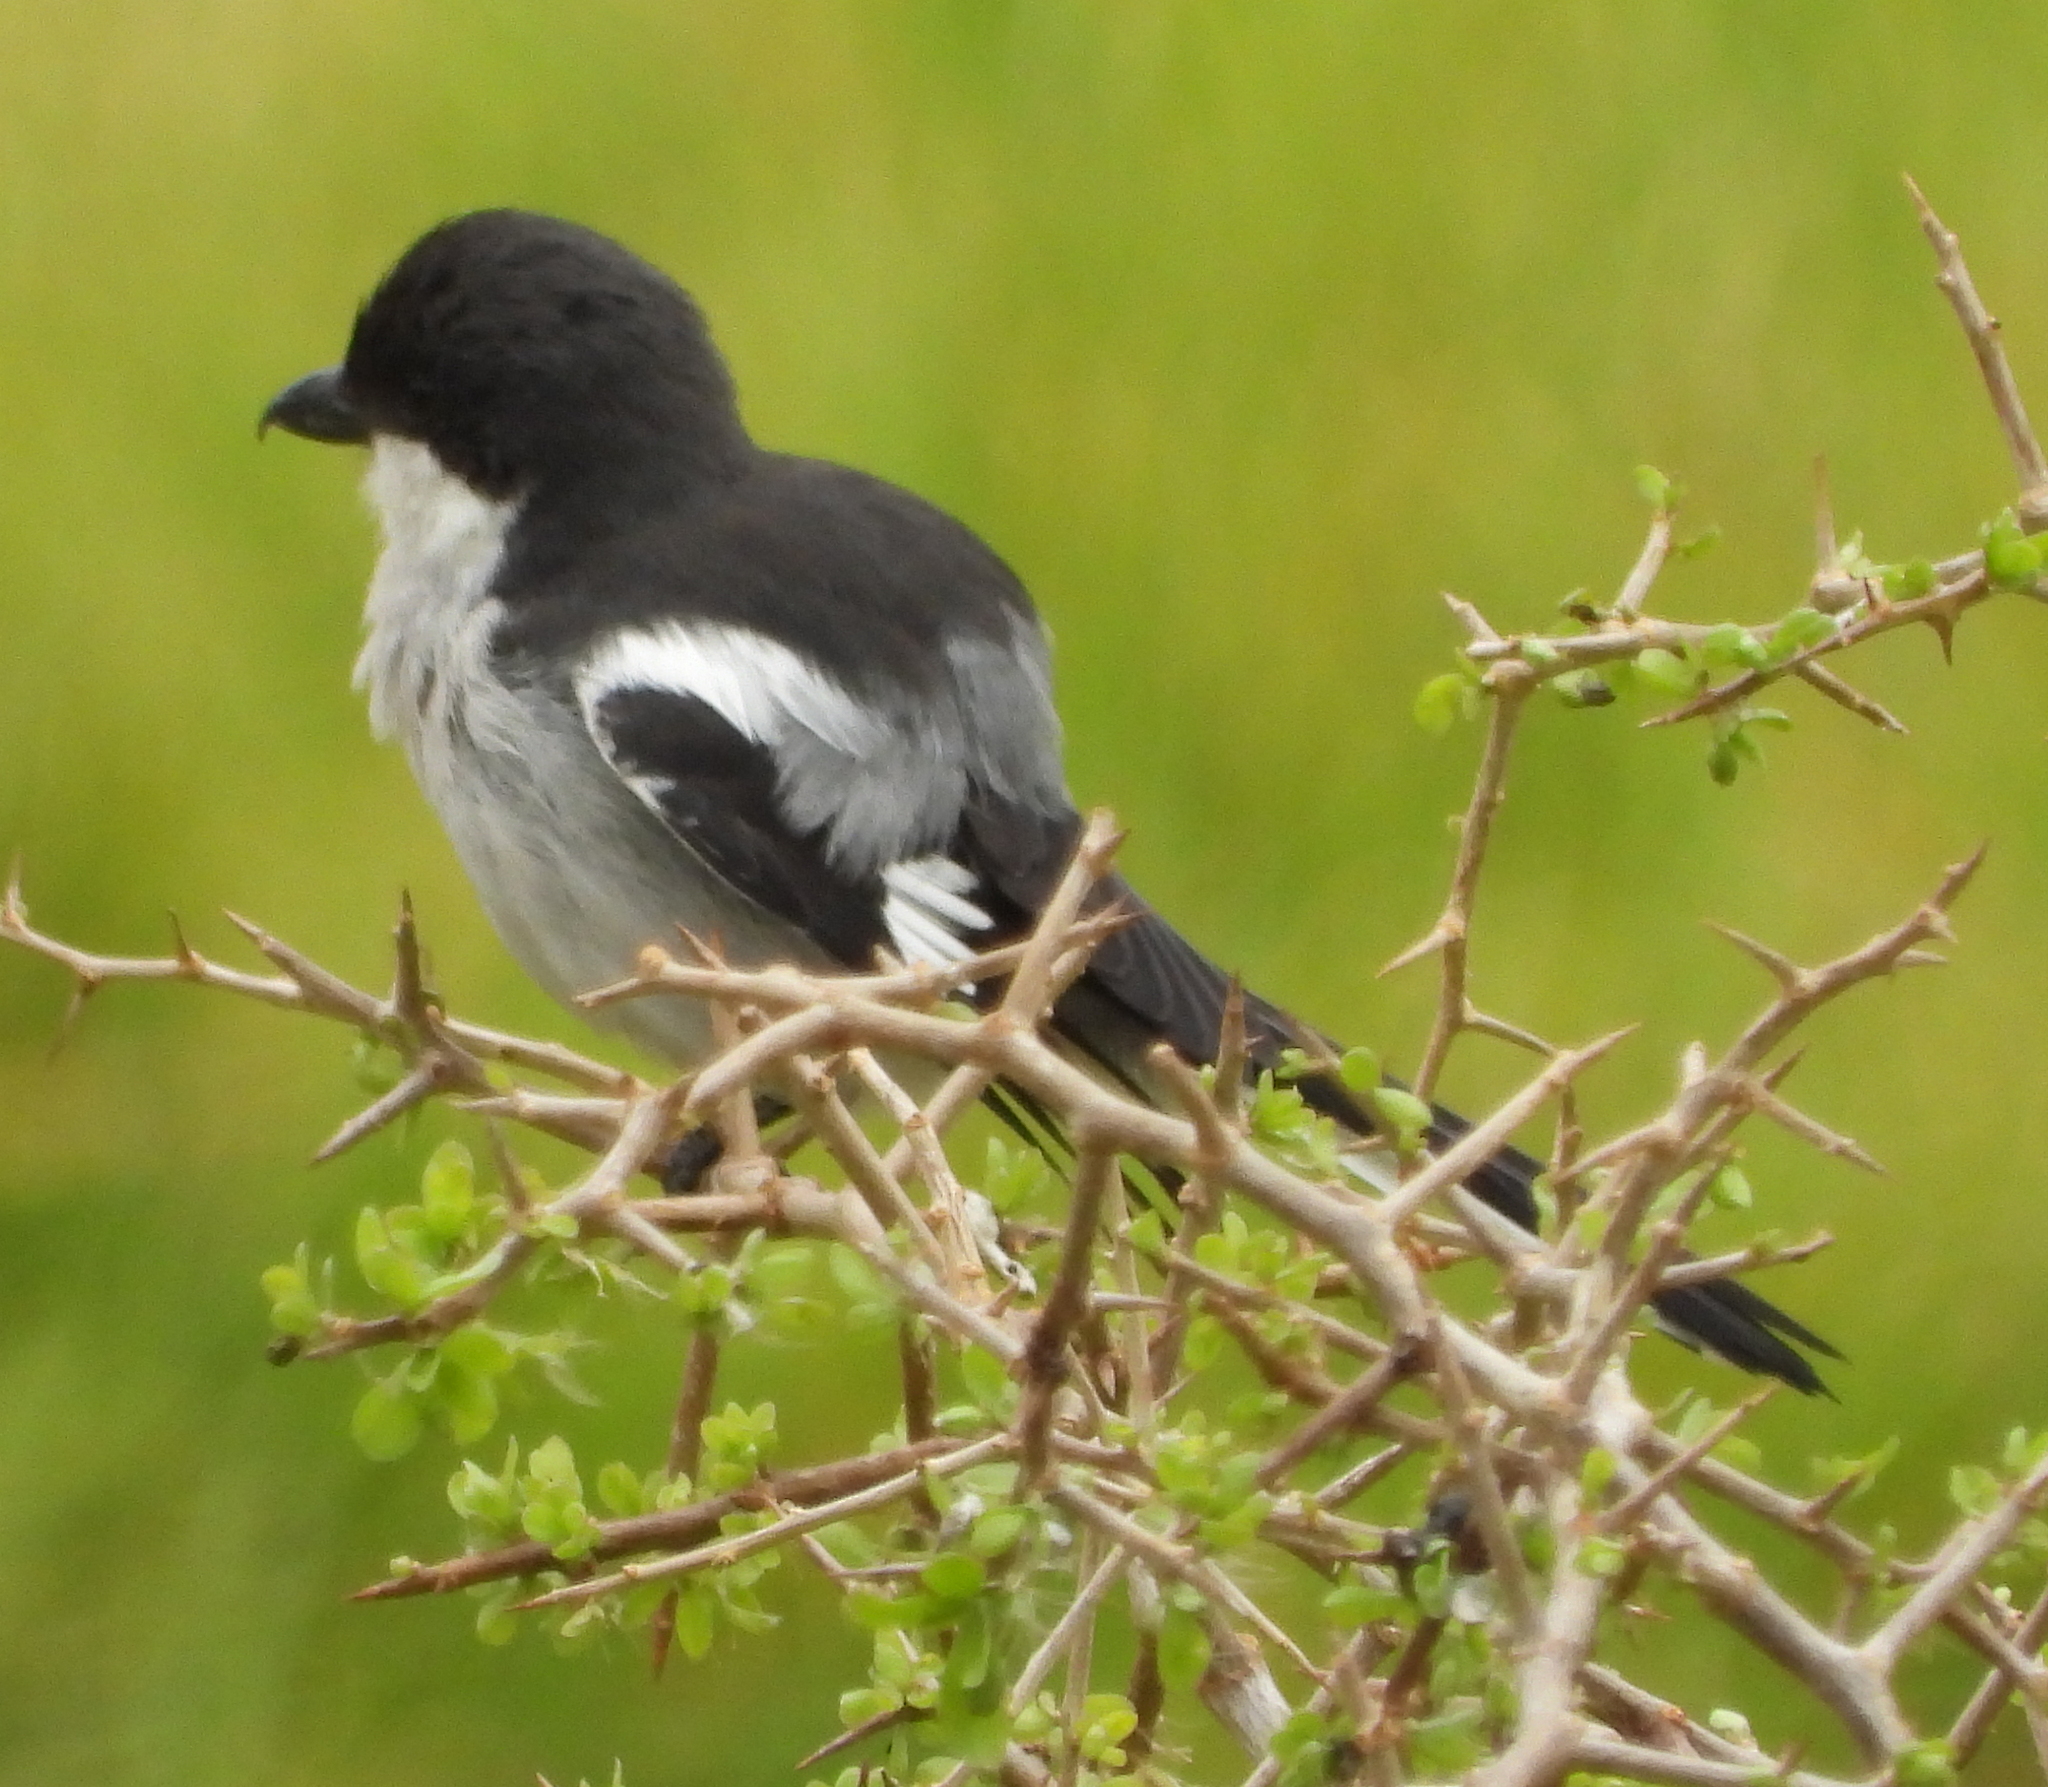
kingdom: Animalia
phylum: Chordata
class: Aves
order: Passeriformes
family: Laniidae
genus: Lanius
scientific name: Lanius collaris
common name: Southern fiscal
